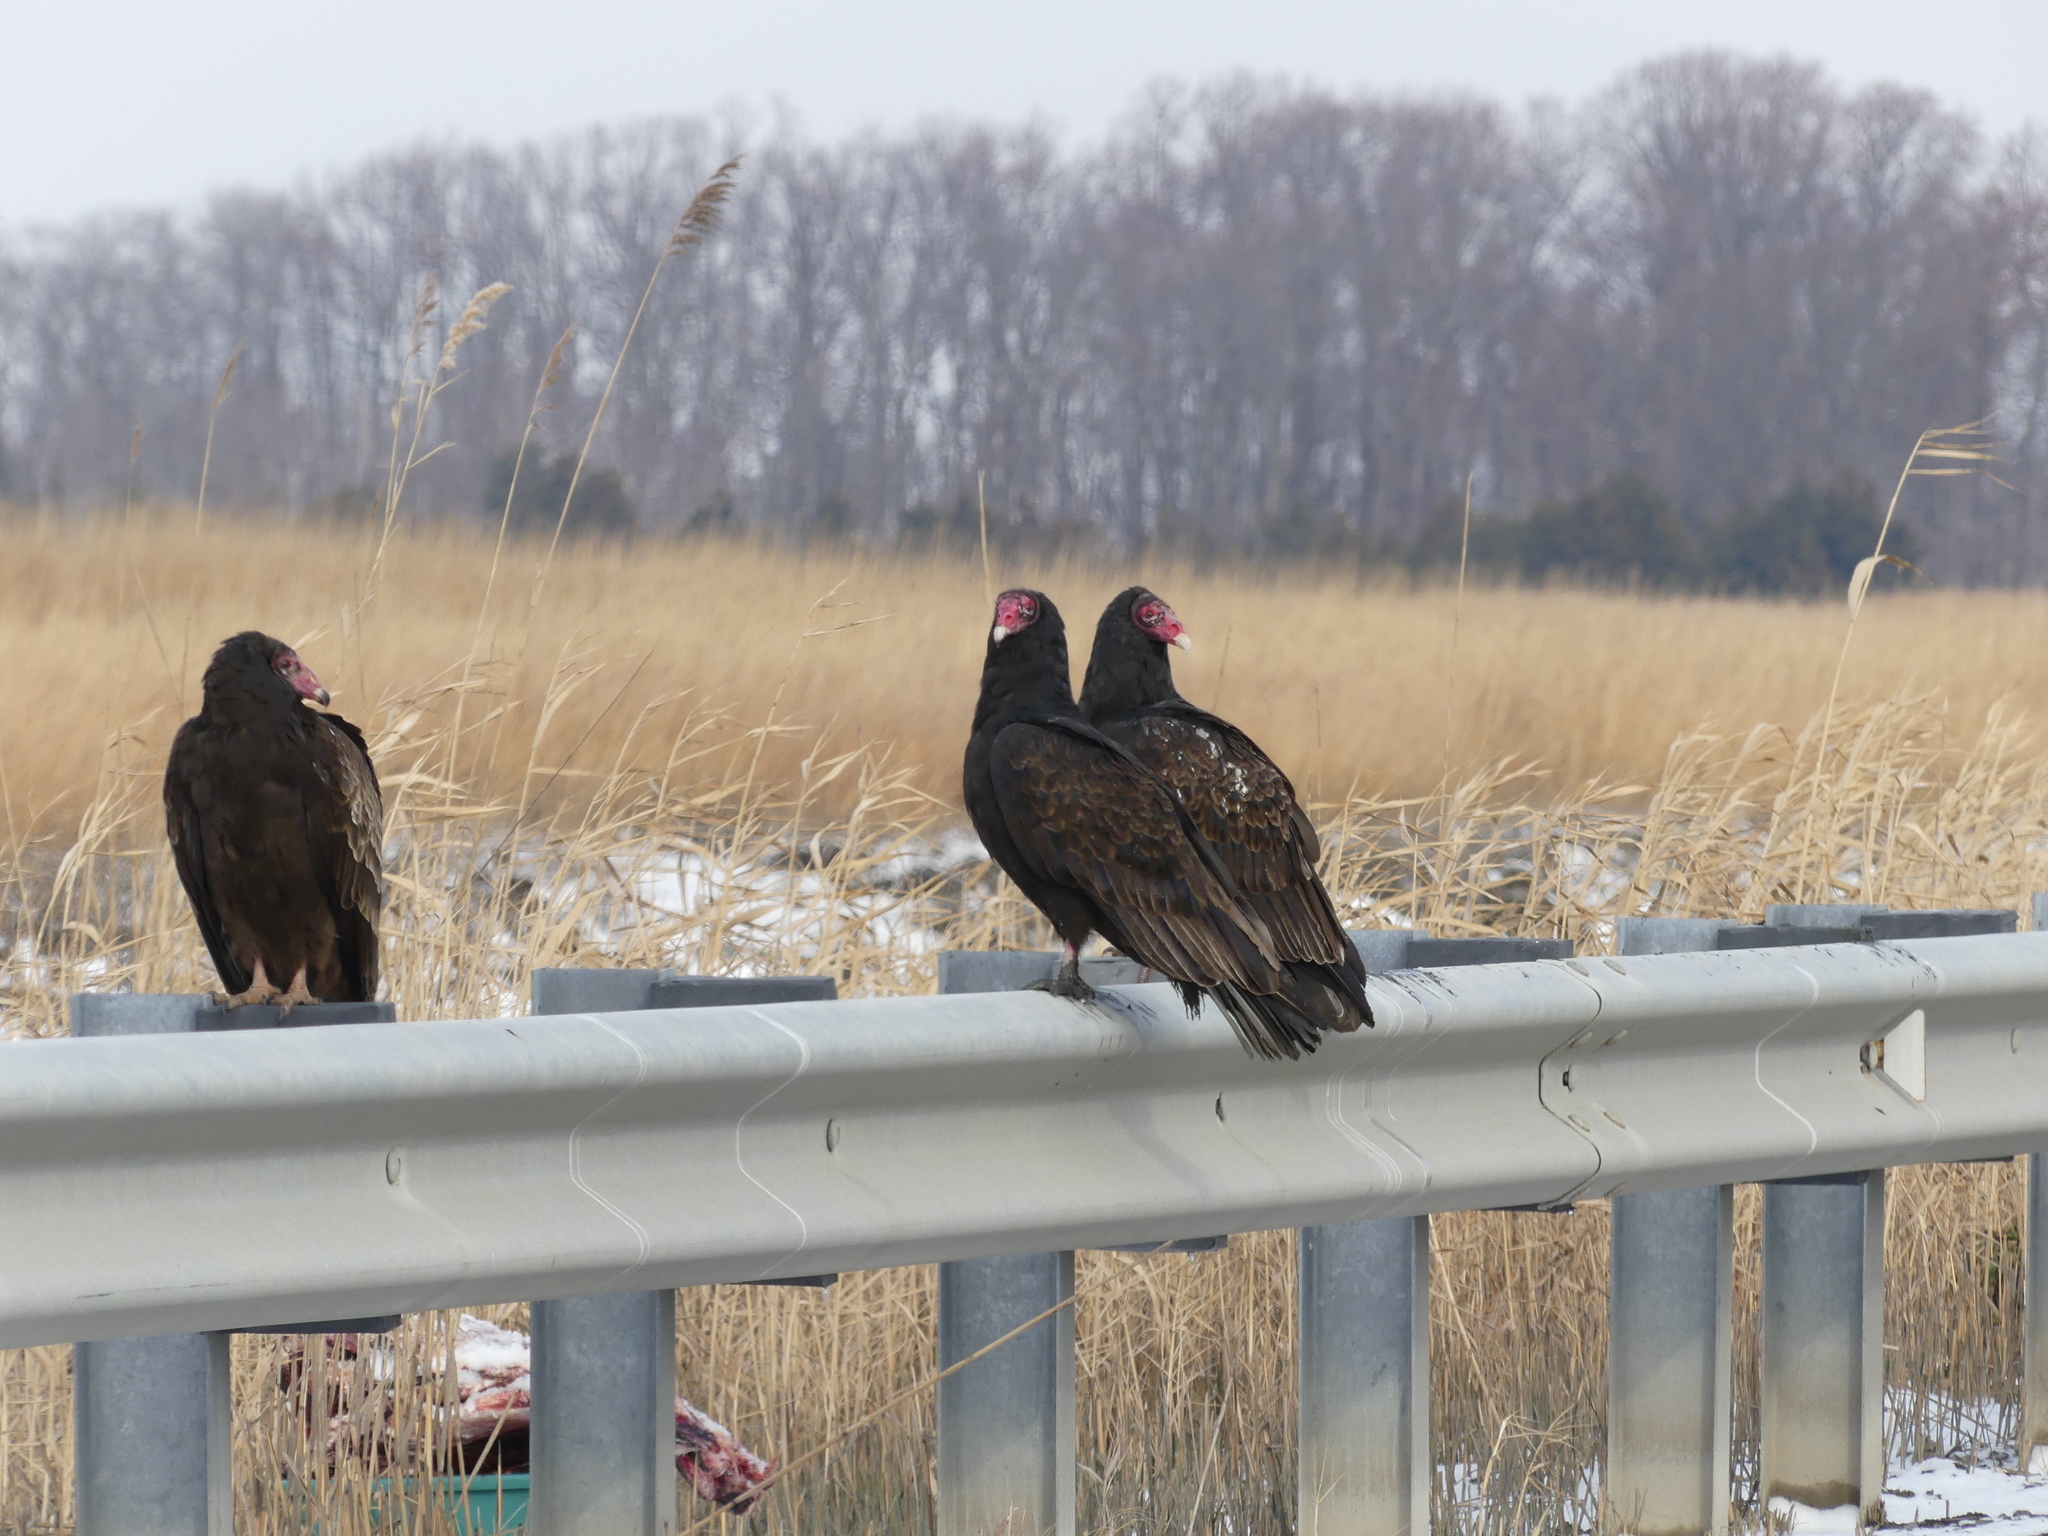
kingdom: Animalia
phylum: Chordata
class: Aves
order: Accipitriformes
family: Cathartidae
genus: Cathartes
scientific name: Cathartes aura
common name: Turkey vulture
